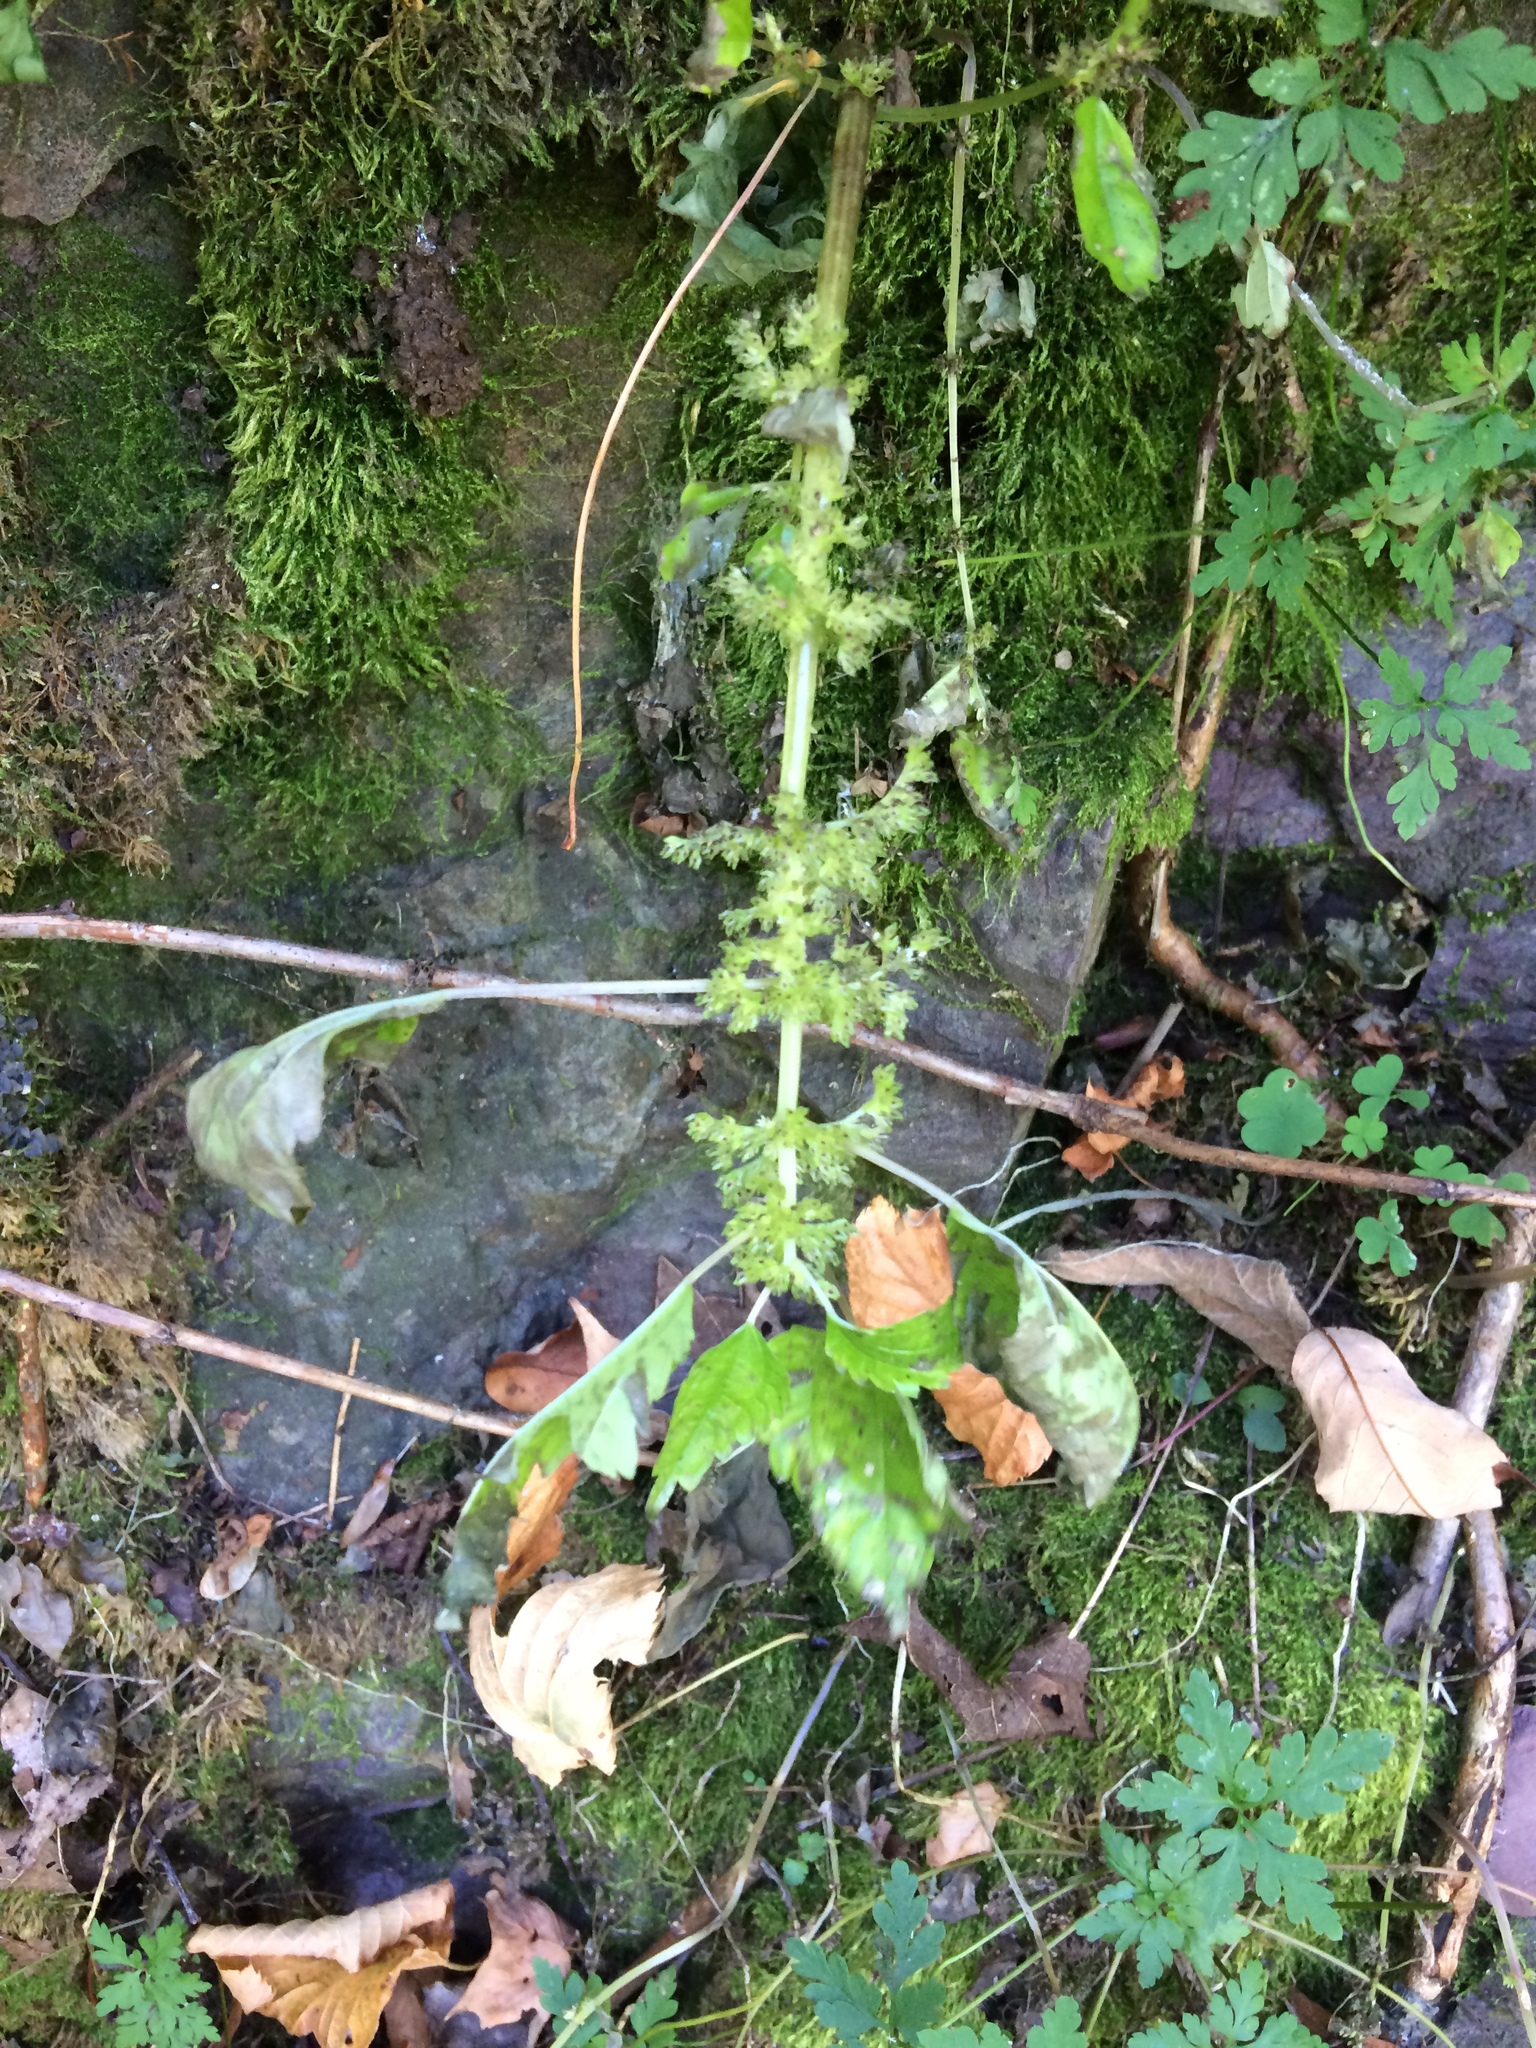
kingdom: Plantae
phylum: Tracheophyta
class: Magnoliopsida
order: Rosales
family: Urticaceae
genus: Pilea
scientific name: Pilea pumila
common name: Clearweed
